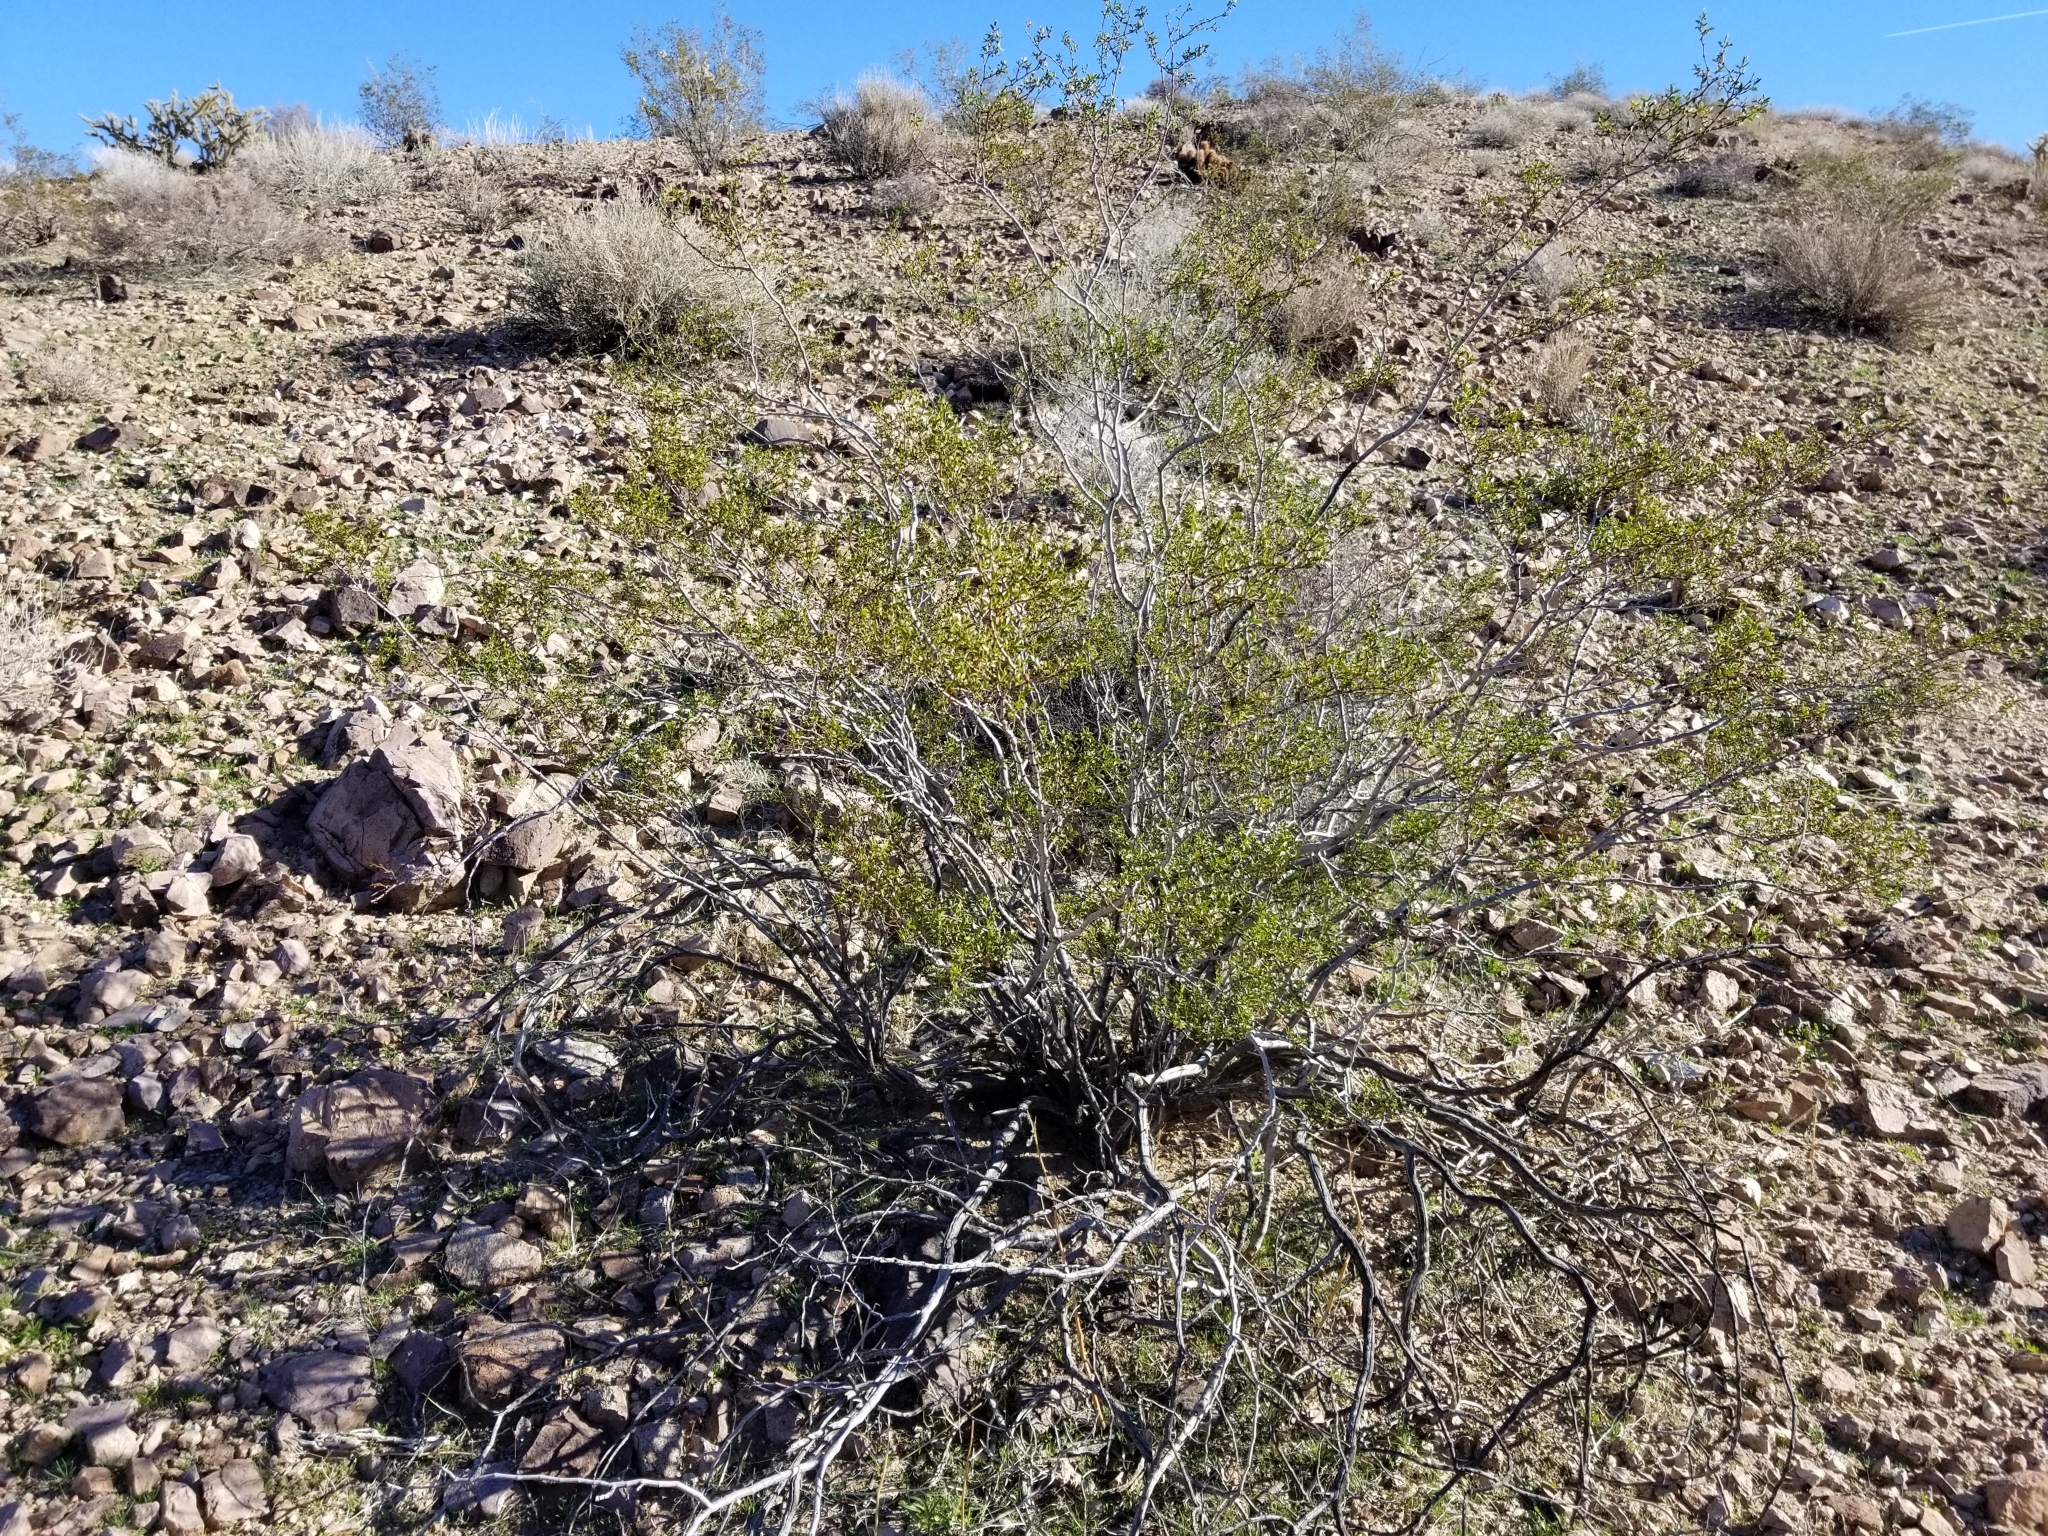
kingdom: Plantae
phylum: Tracheophyta
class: Magnoliopsida
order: Zygophyllales
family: Zygophyllaceae
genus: Larrea
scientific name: Larrea tridentata
